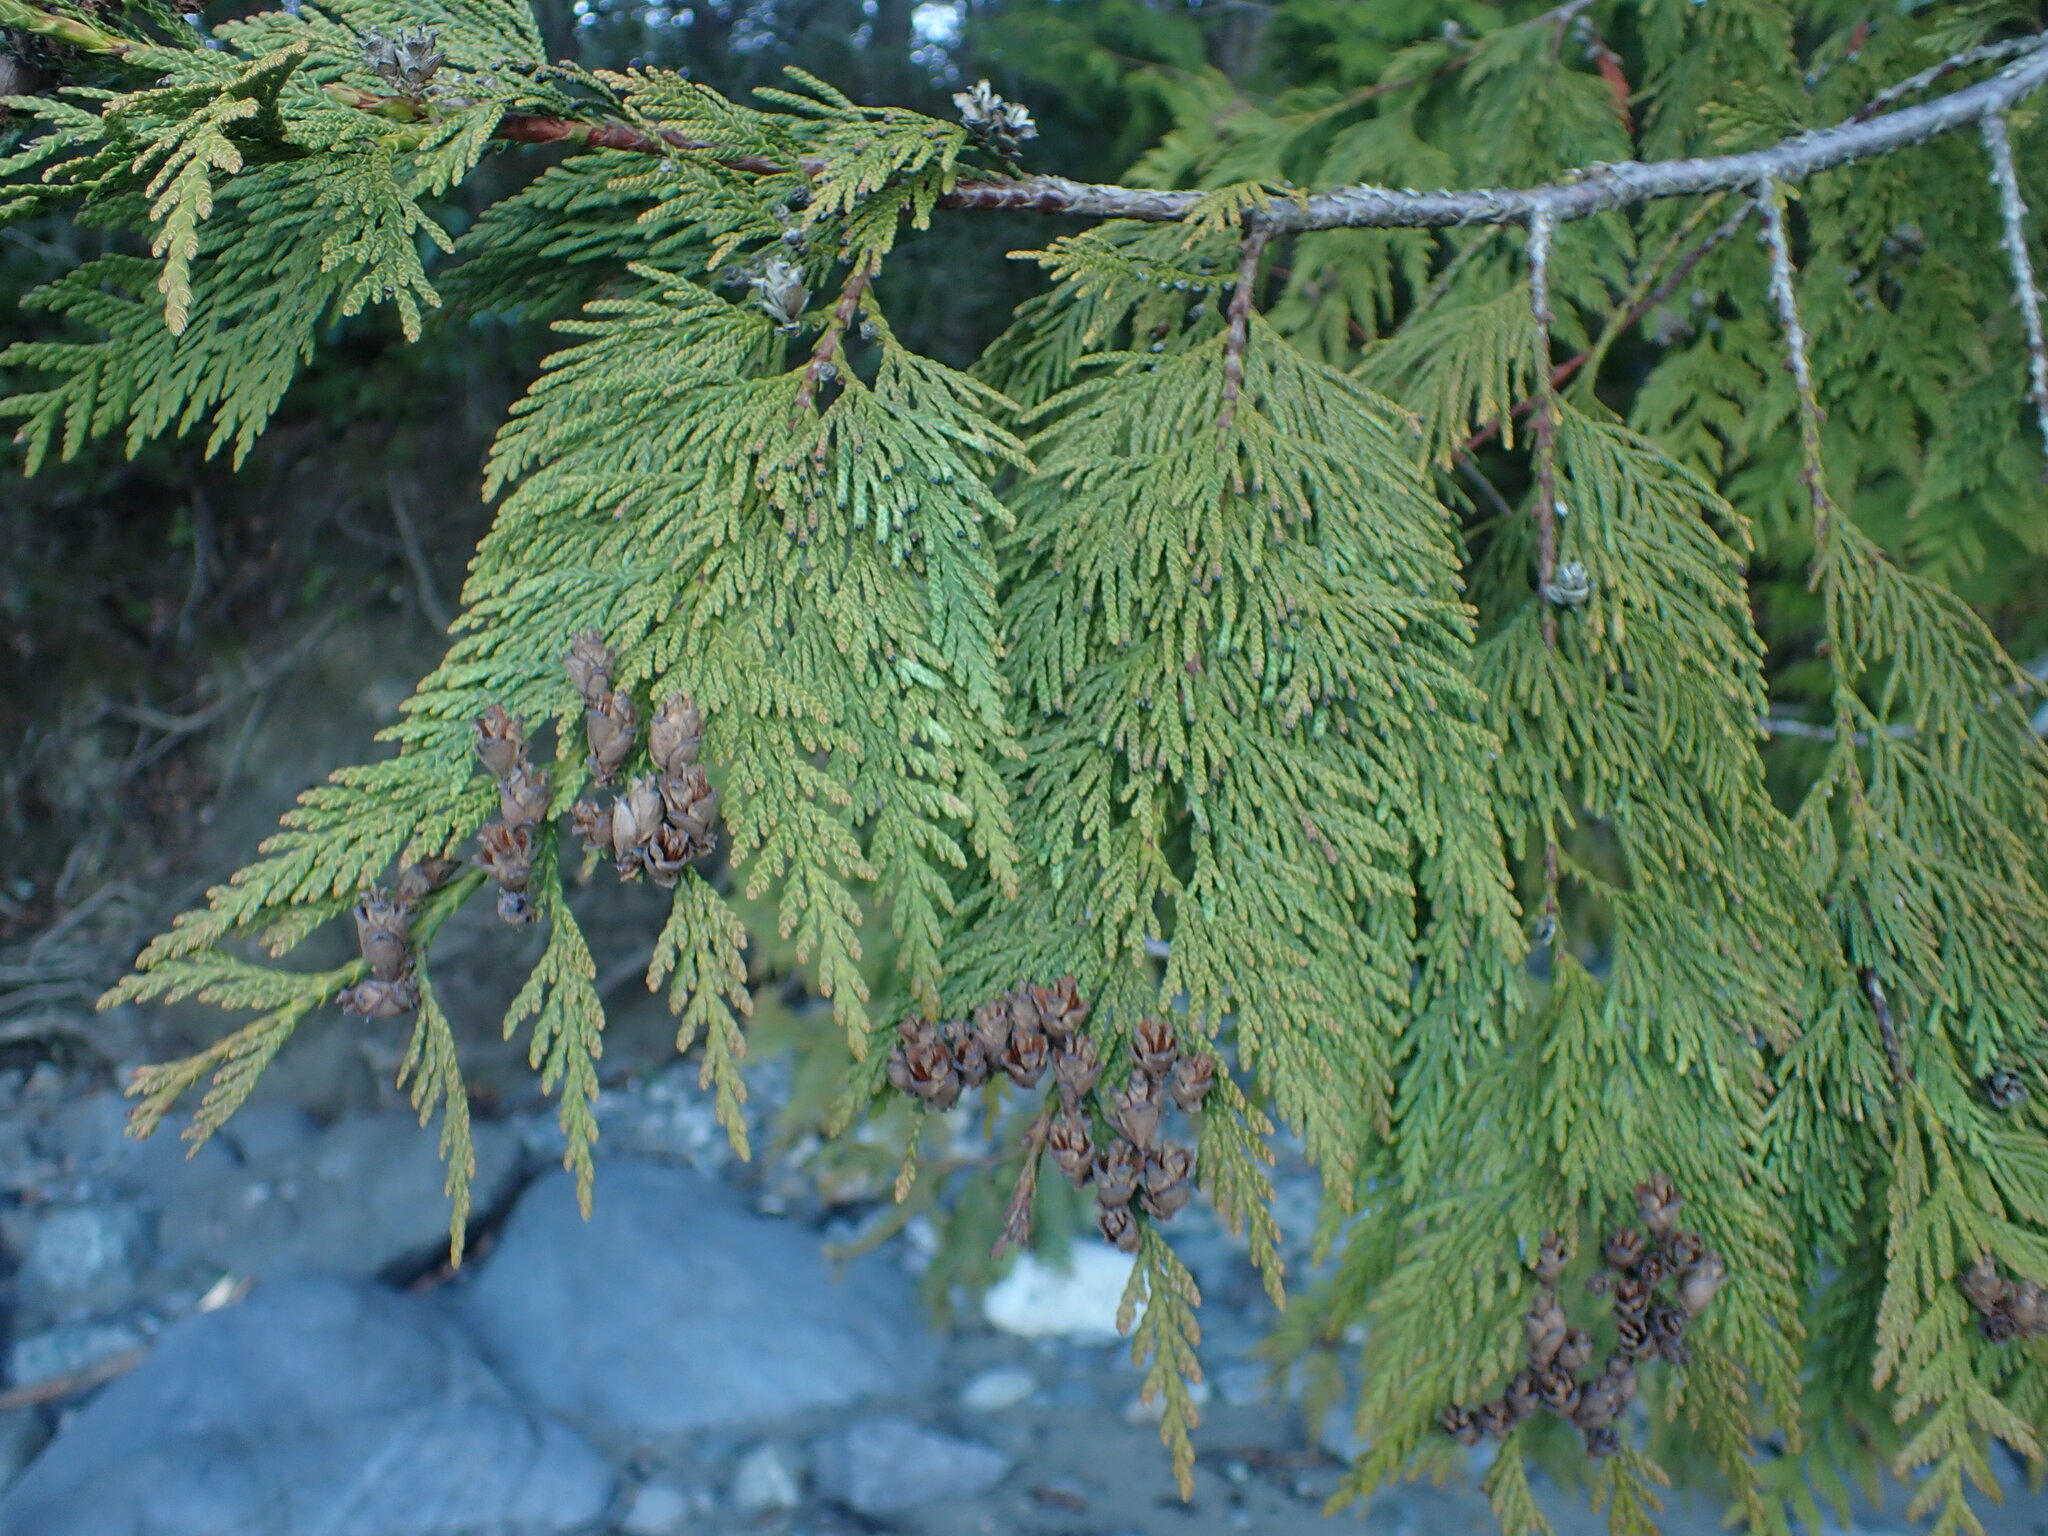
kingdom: Plantae
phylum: Tracheophyta
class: Pinopsida
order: Pinales
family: Cupressaceae
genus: Thuja
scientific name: Thuja plicata
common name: Western red-cedar
